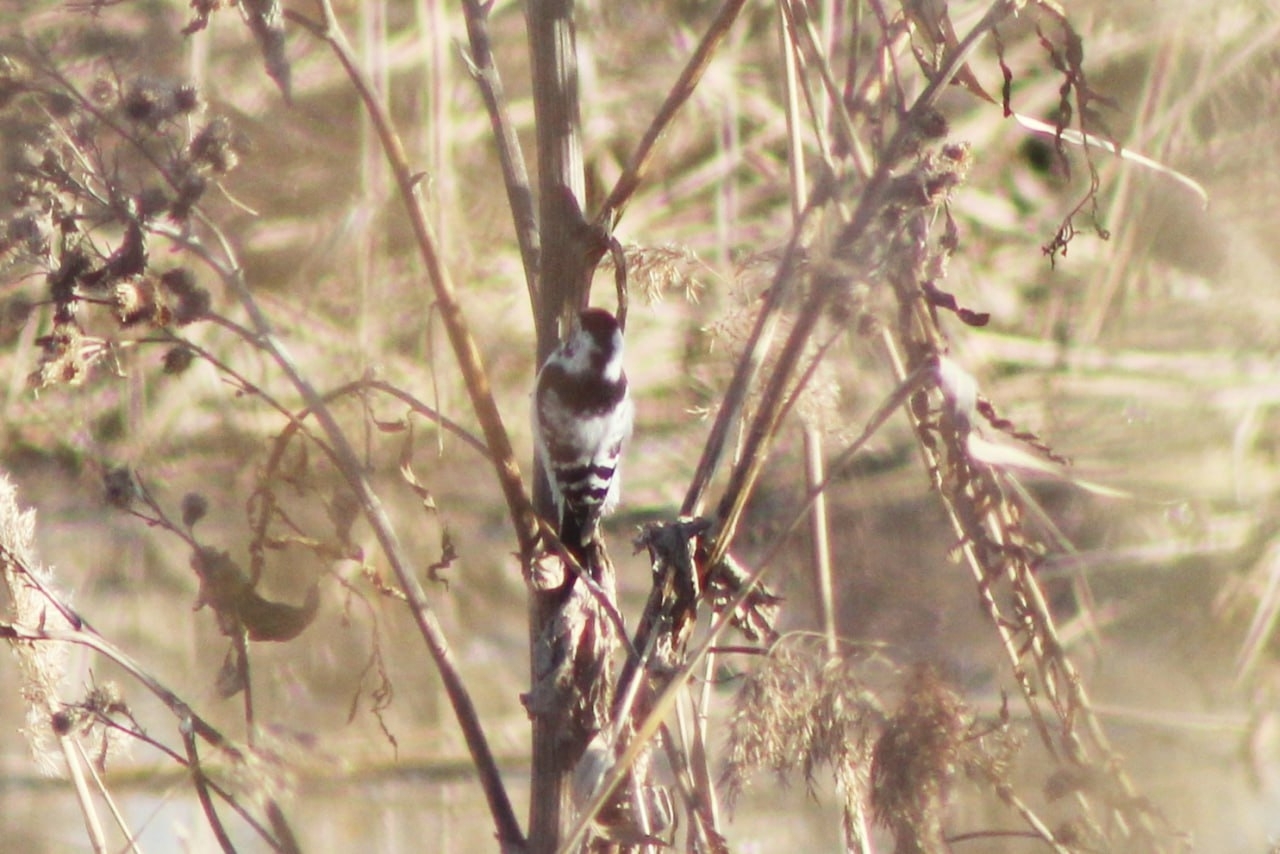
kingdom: Animalia
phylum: Chordata
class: Aves
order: Piciformes
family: Picidae
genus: Dryobates
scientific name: Dryobates minor
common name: Lesser spotted woodpecker
